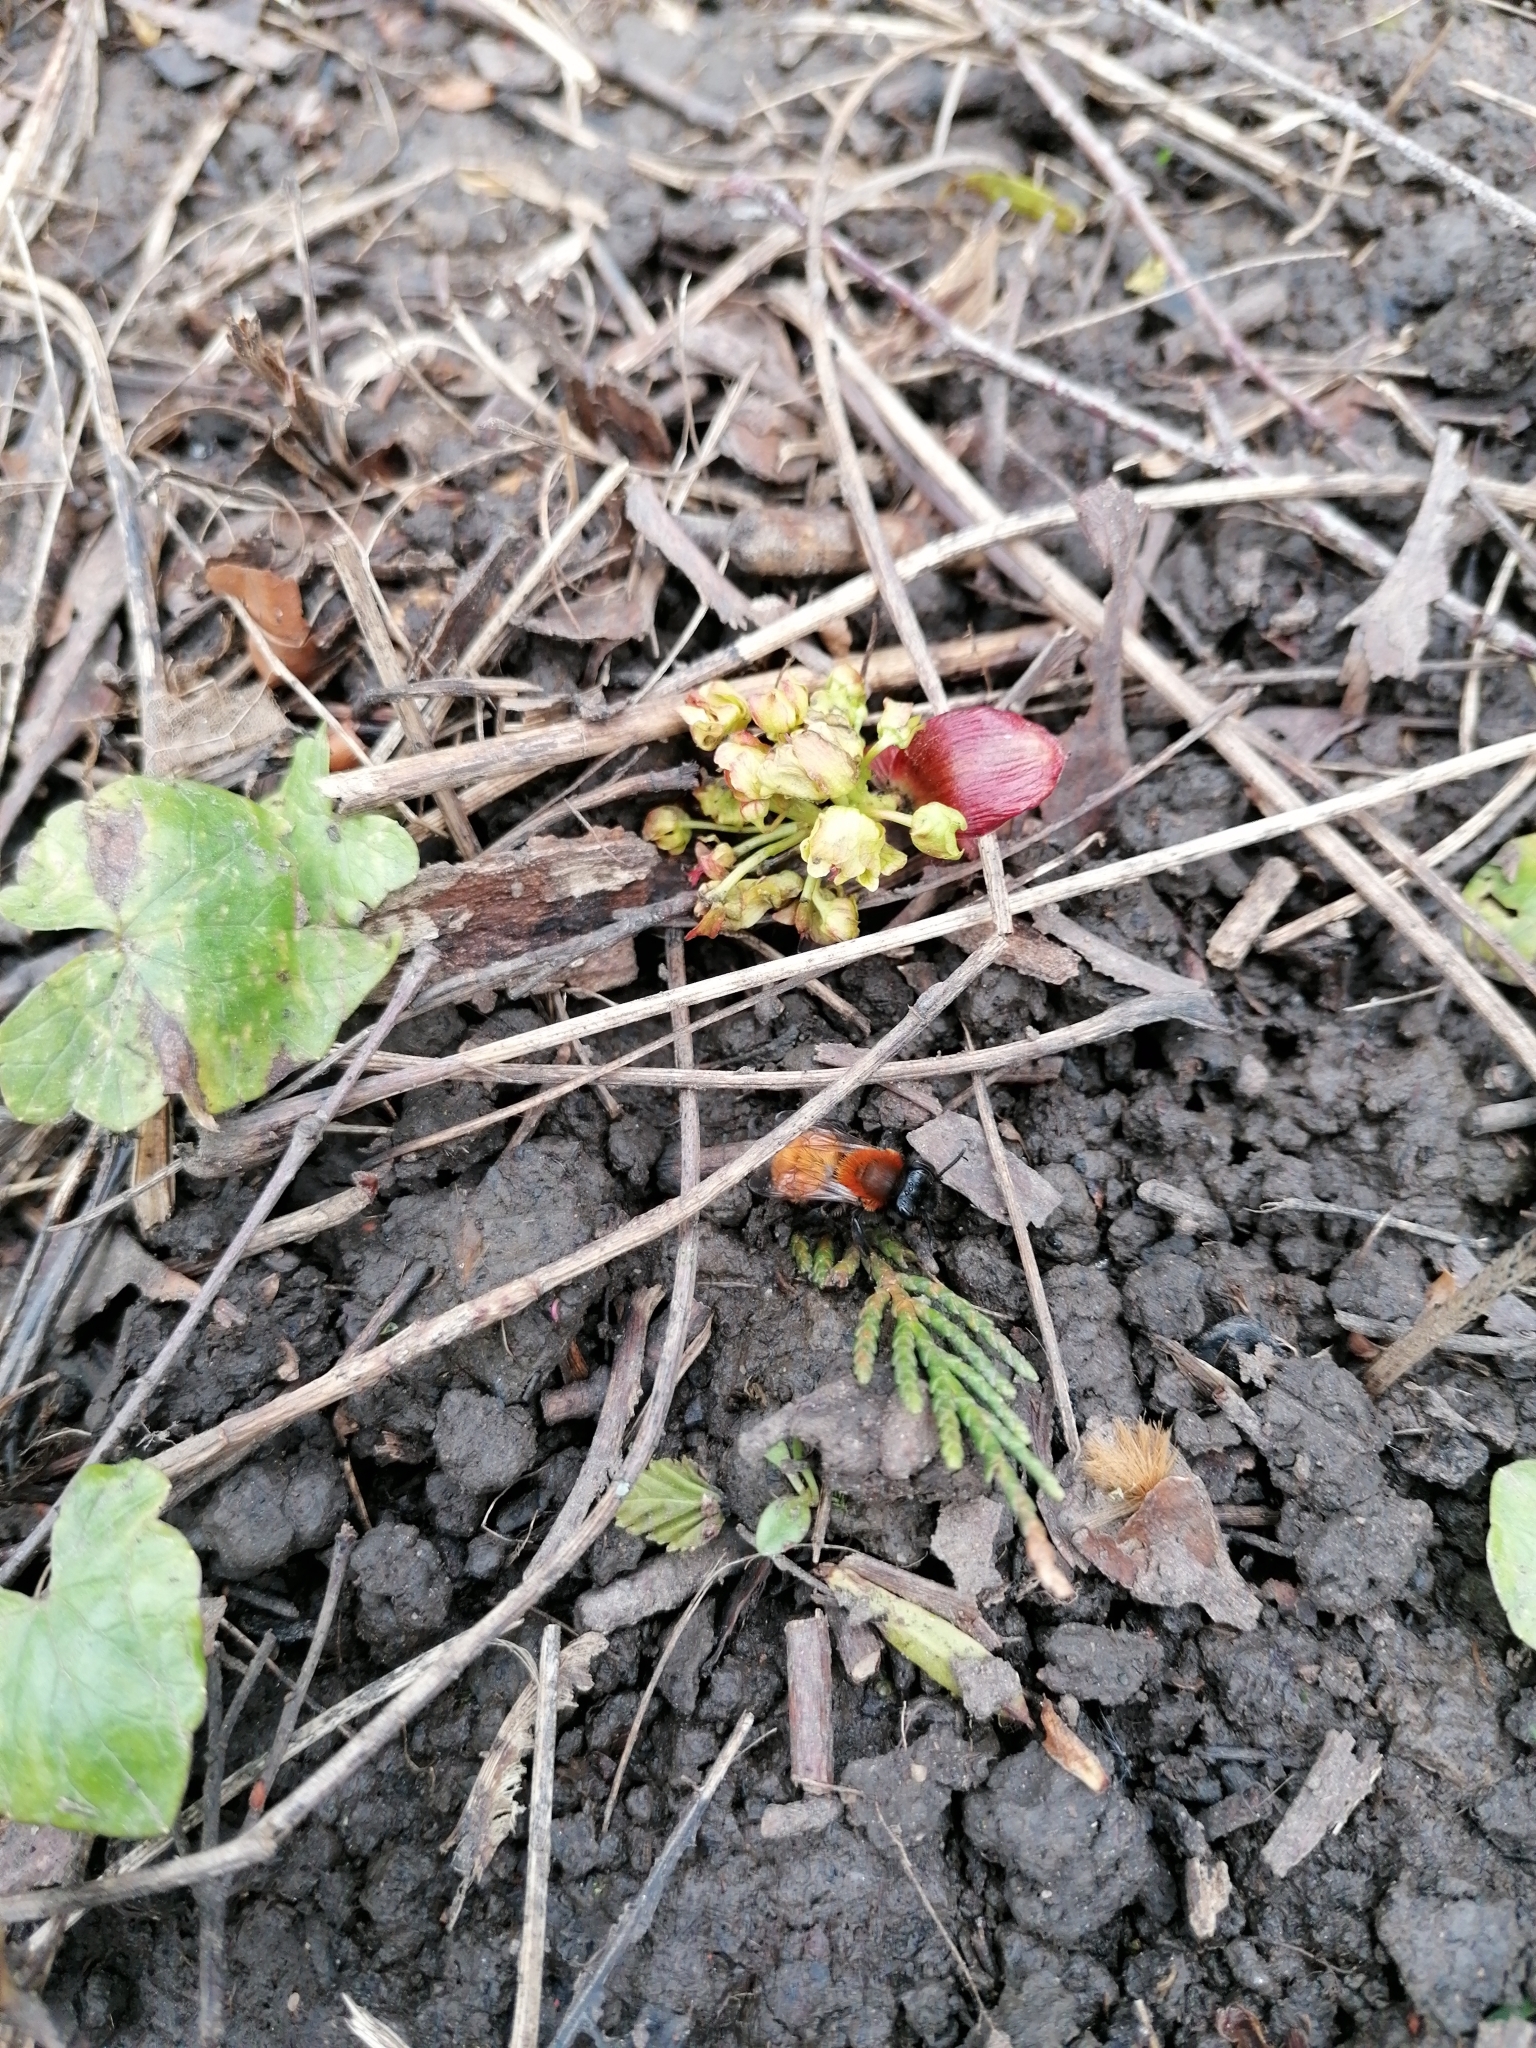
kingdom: Animalia
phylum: Arthropoda
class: Insecta
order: Hymenoptera
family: Andrenidae
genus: Andrena
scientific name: Andrena fulva
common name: Tawny mining bee
